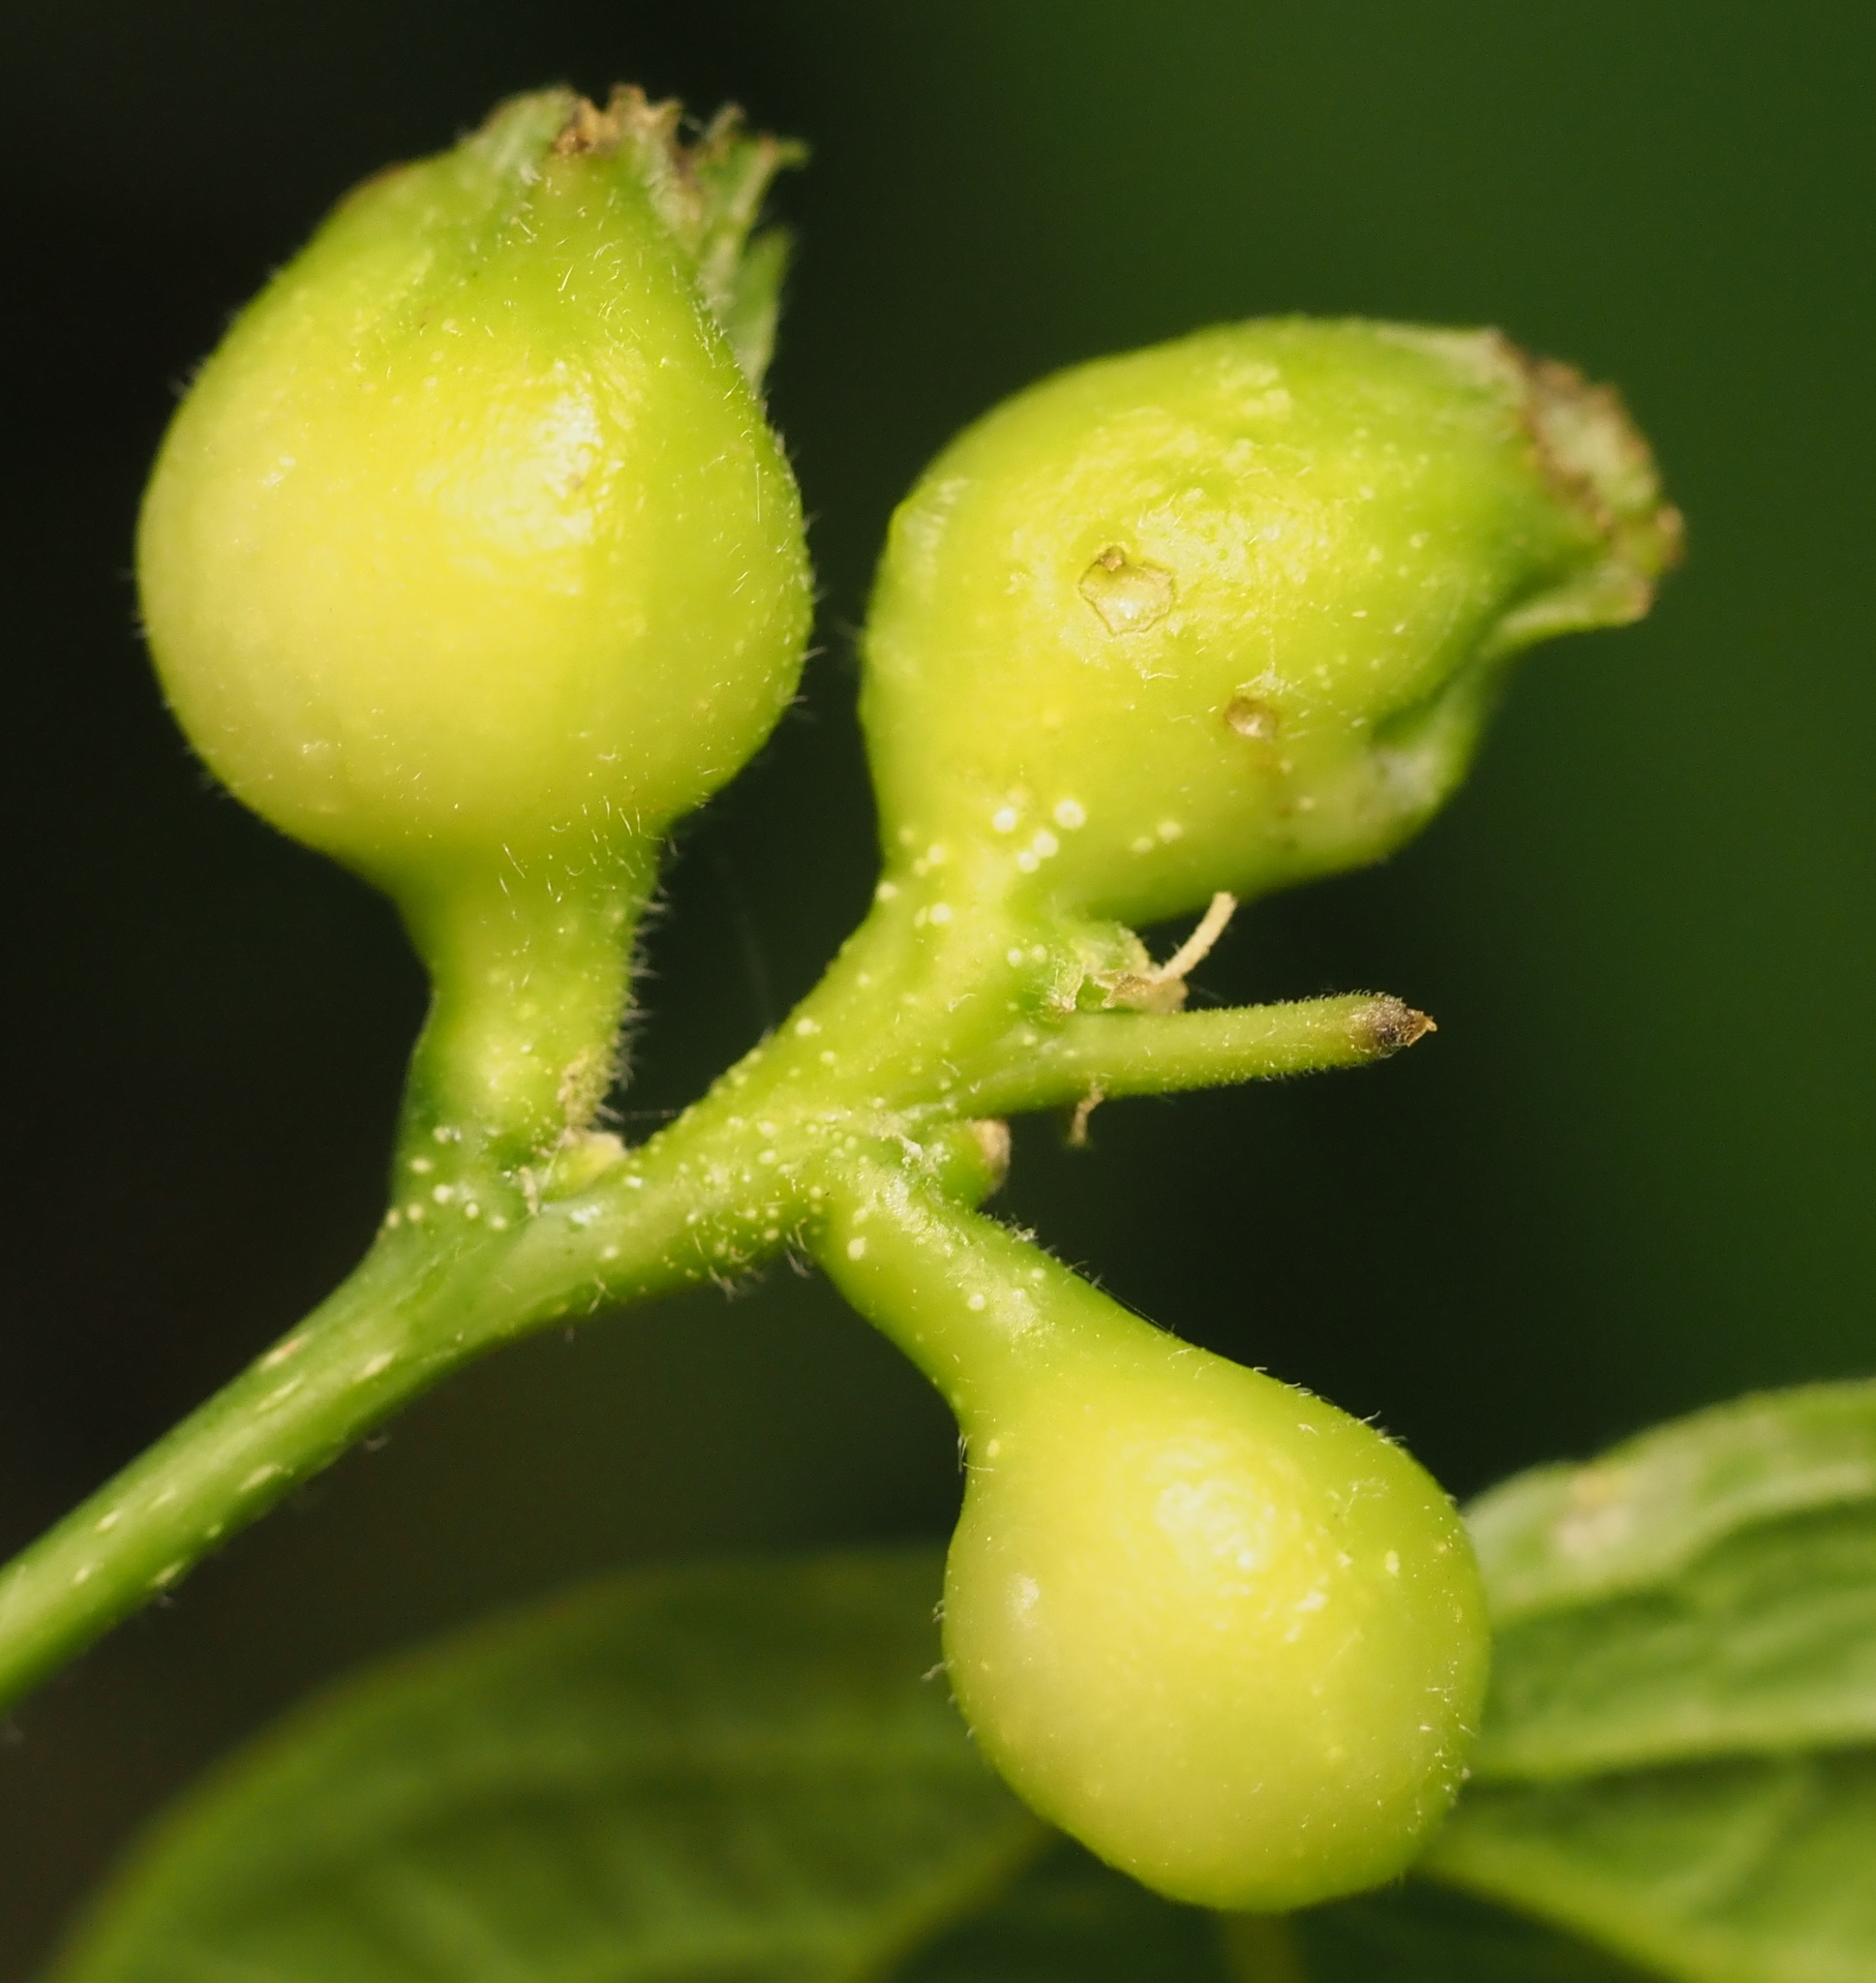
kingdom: Animalia
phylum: Arthropoda
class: Insecta
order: Hemiptera
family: Aphalaridae
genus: Pachypsylla
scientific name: Pachypsylla venusta
